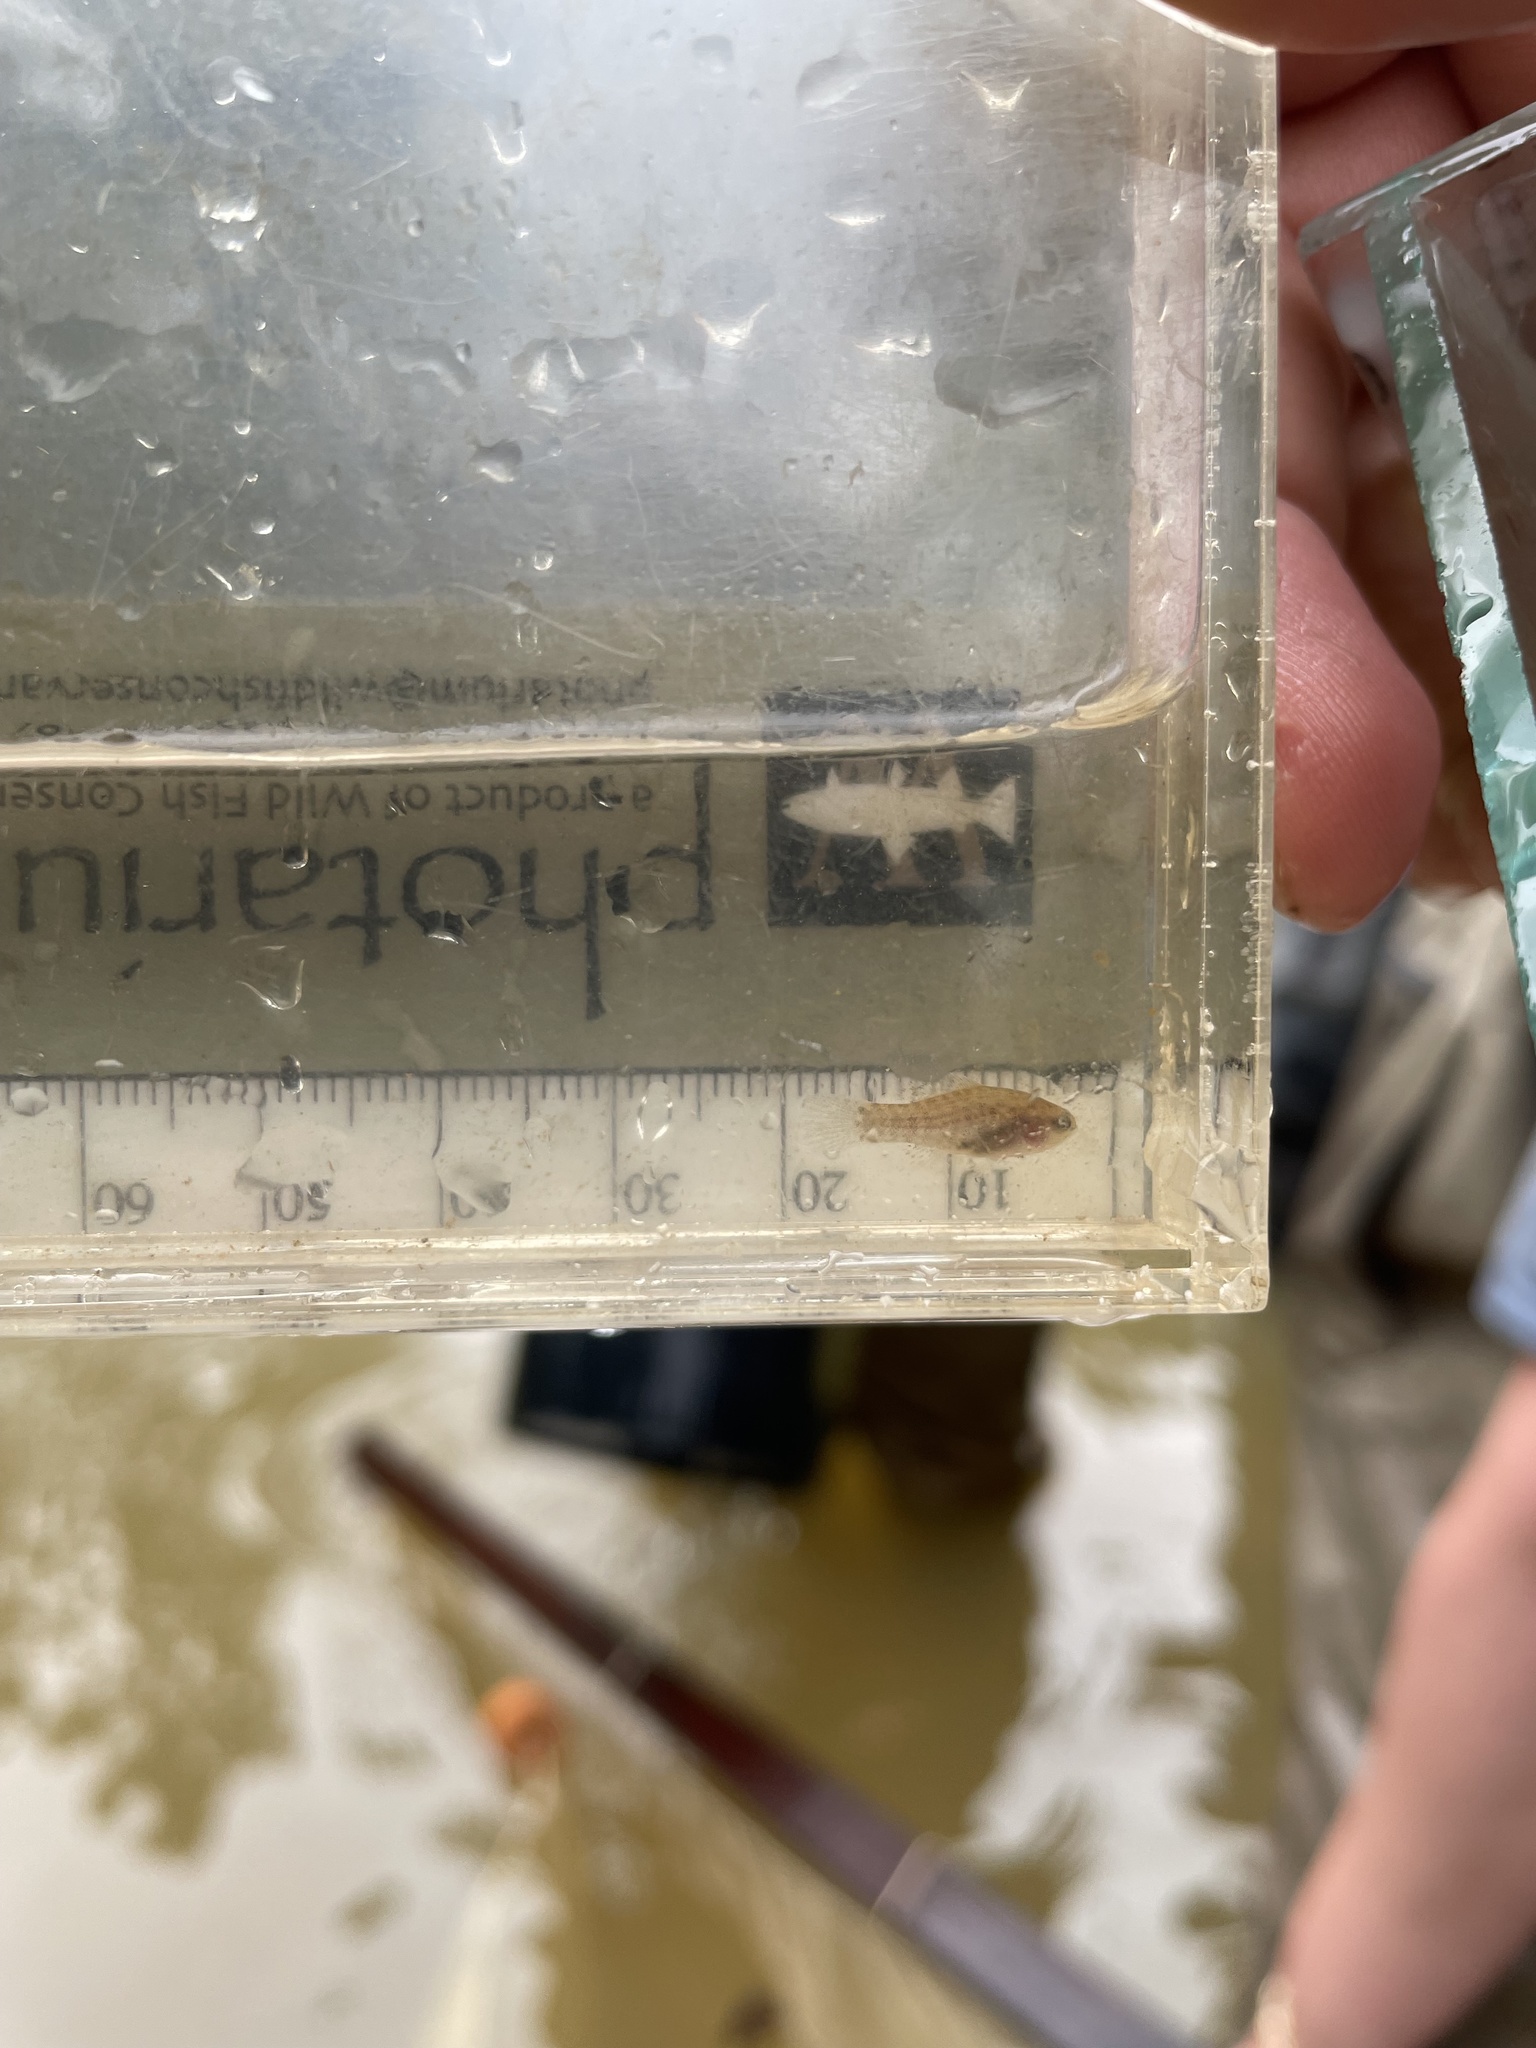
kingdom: Animalia
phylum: Chordata
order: Perciformes
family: Elassomatidae
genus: Elassoma
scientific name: Elassoma zonatum
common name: Banded pygmy sunfish
